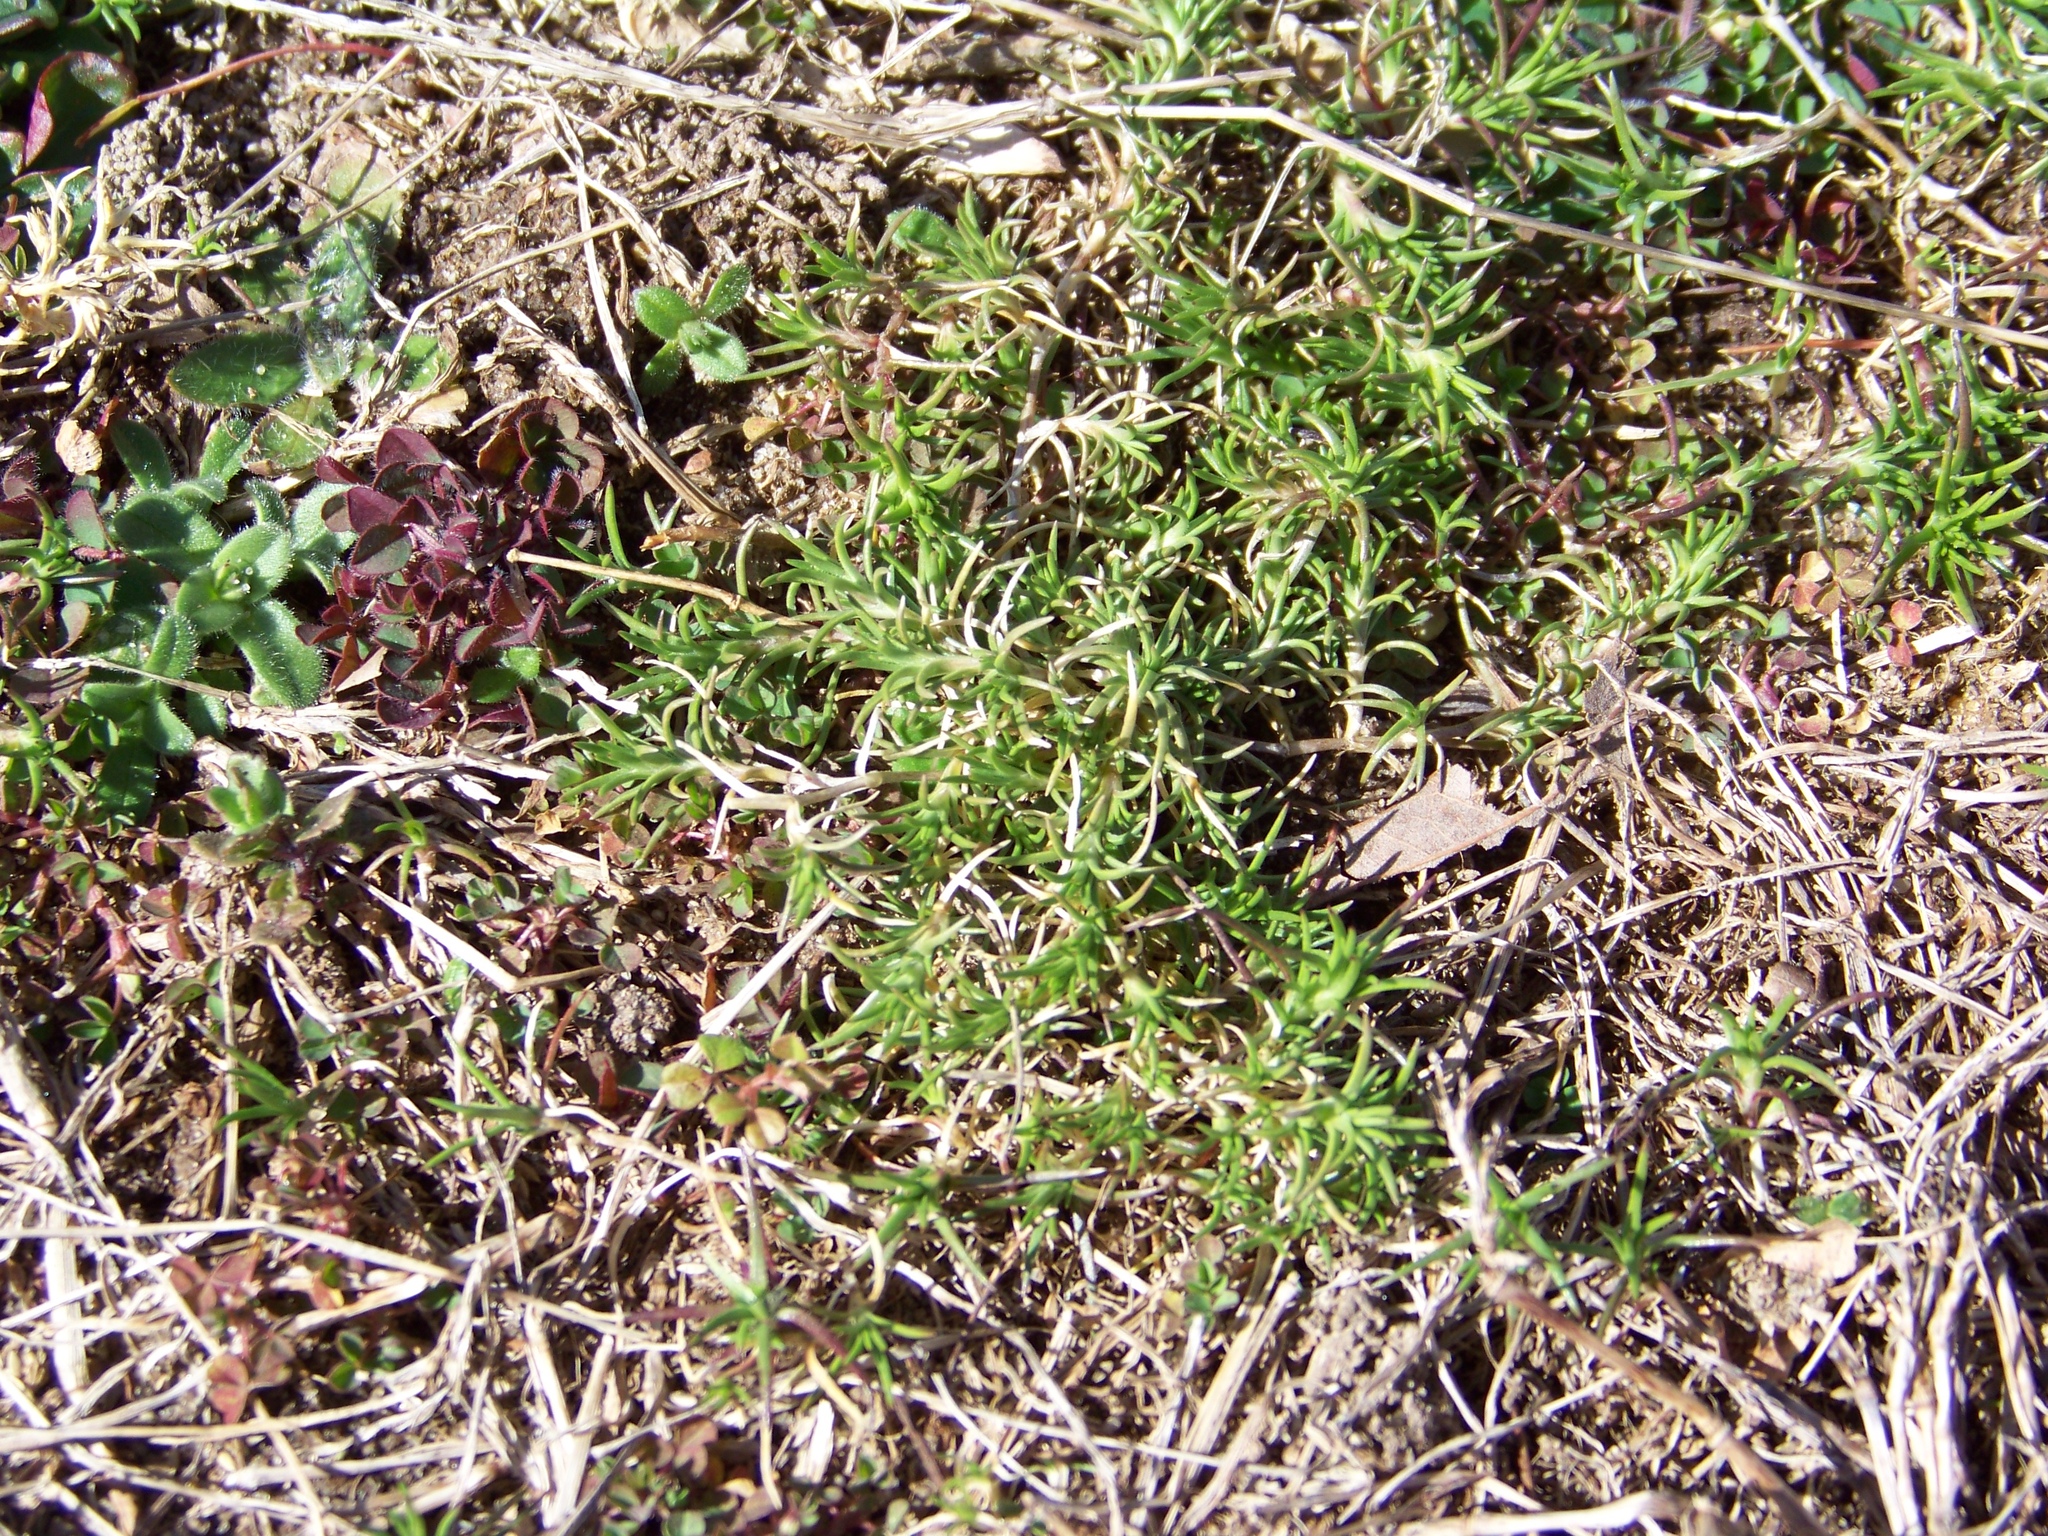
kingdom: Plantae
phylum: Tracheophyta
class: Magnoliopsida
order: Caryophyllales
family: Caryophyllaceae
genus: Scleranthus
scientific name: Scleranthus annuus
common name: Annual knawel
